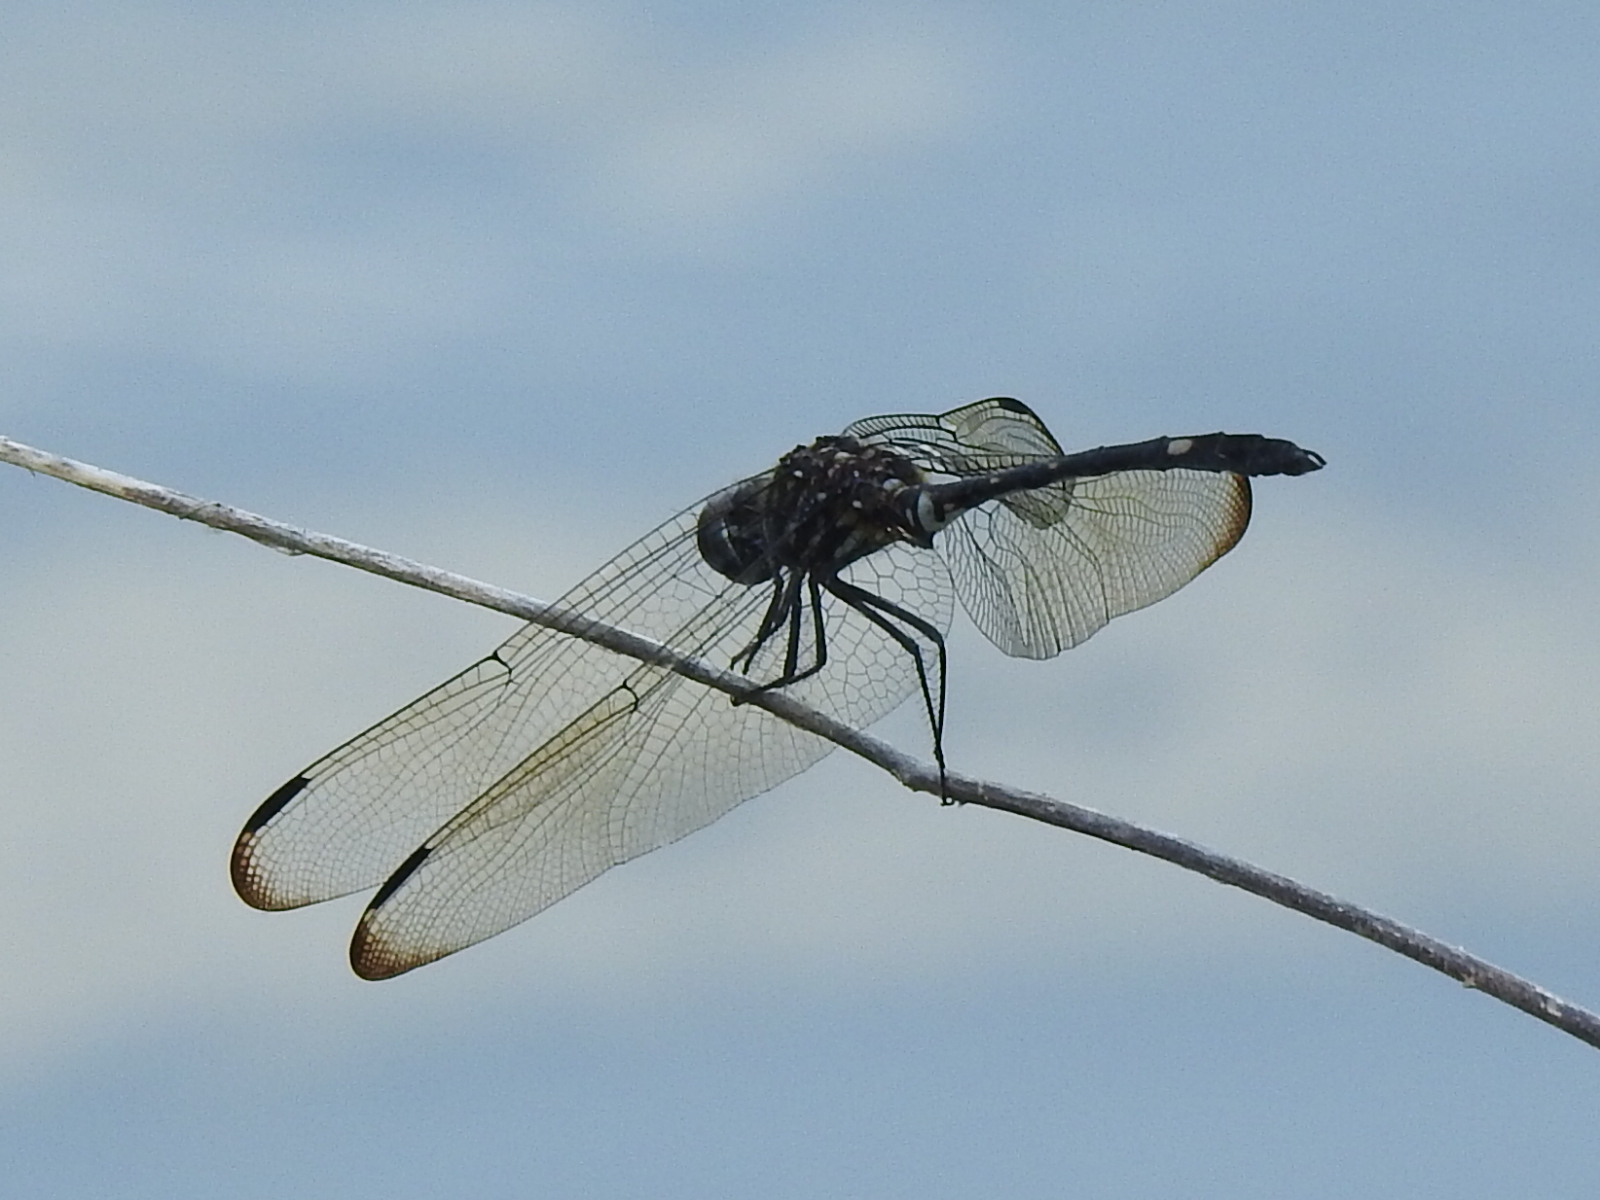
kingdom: Animalia
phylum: Arthropoda
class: Insecta
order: Odonata
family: Libellulidae
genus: Dythemis
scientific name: Dythemis velox
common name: Swift setwing
